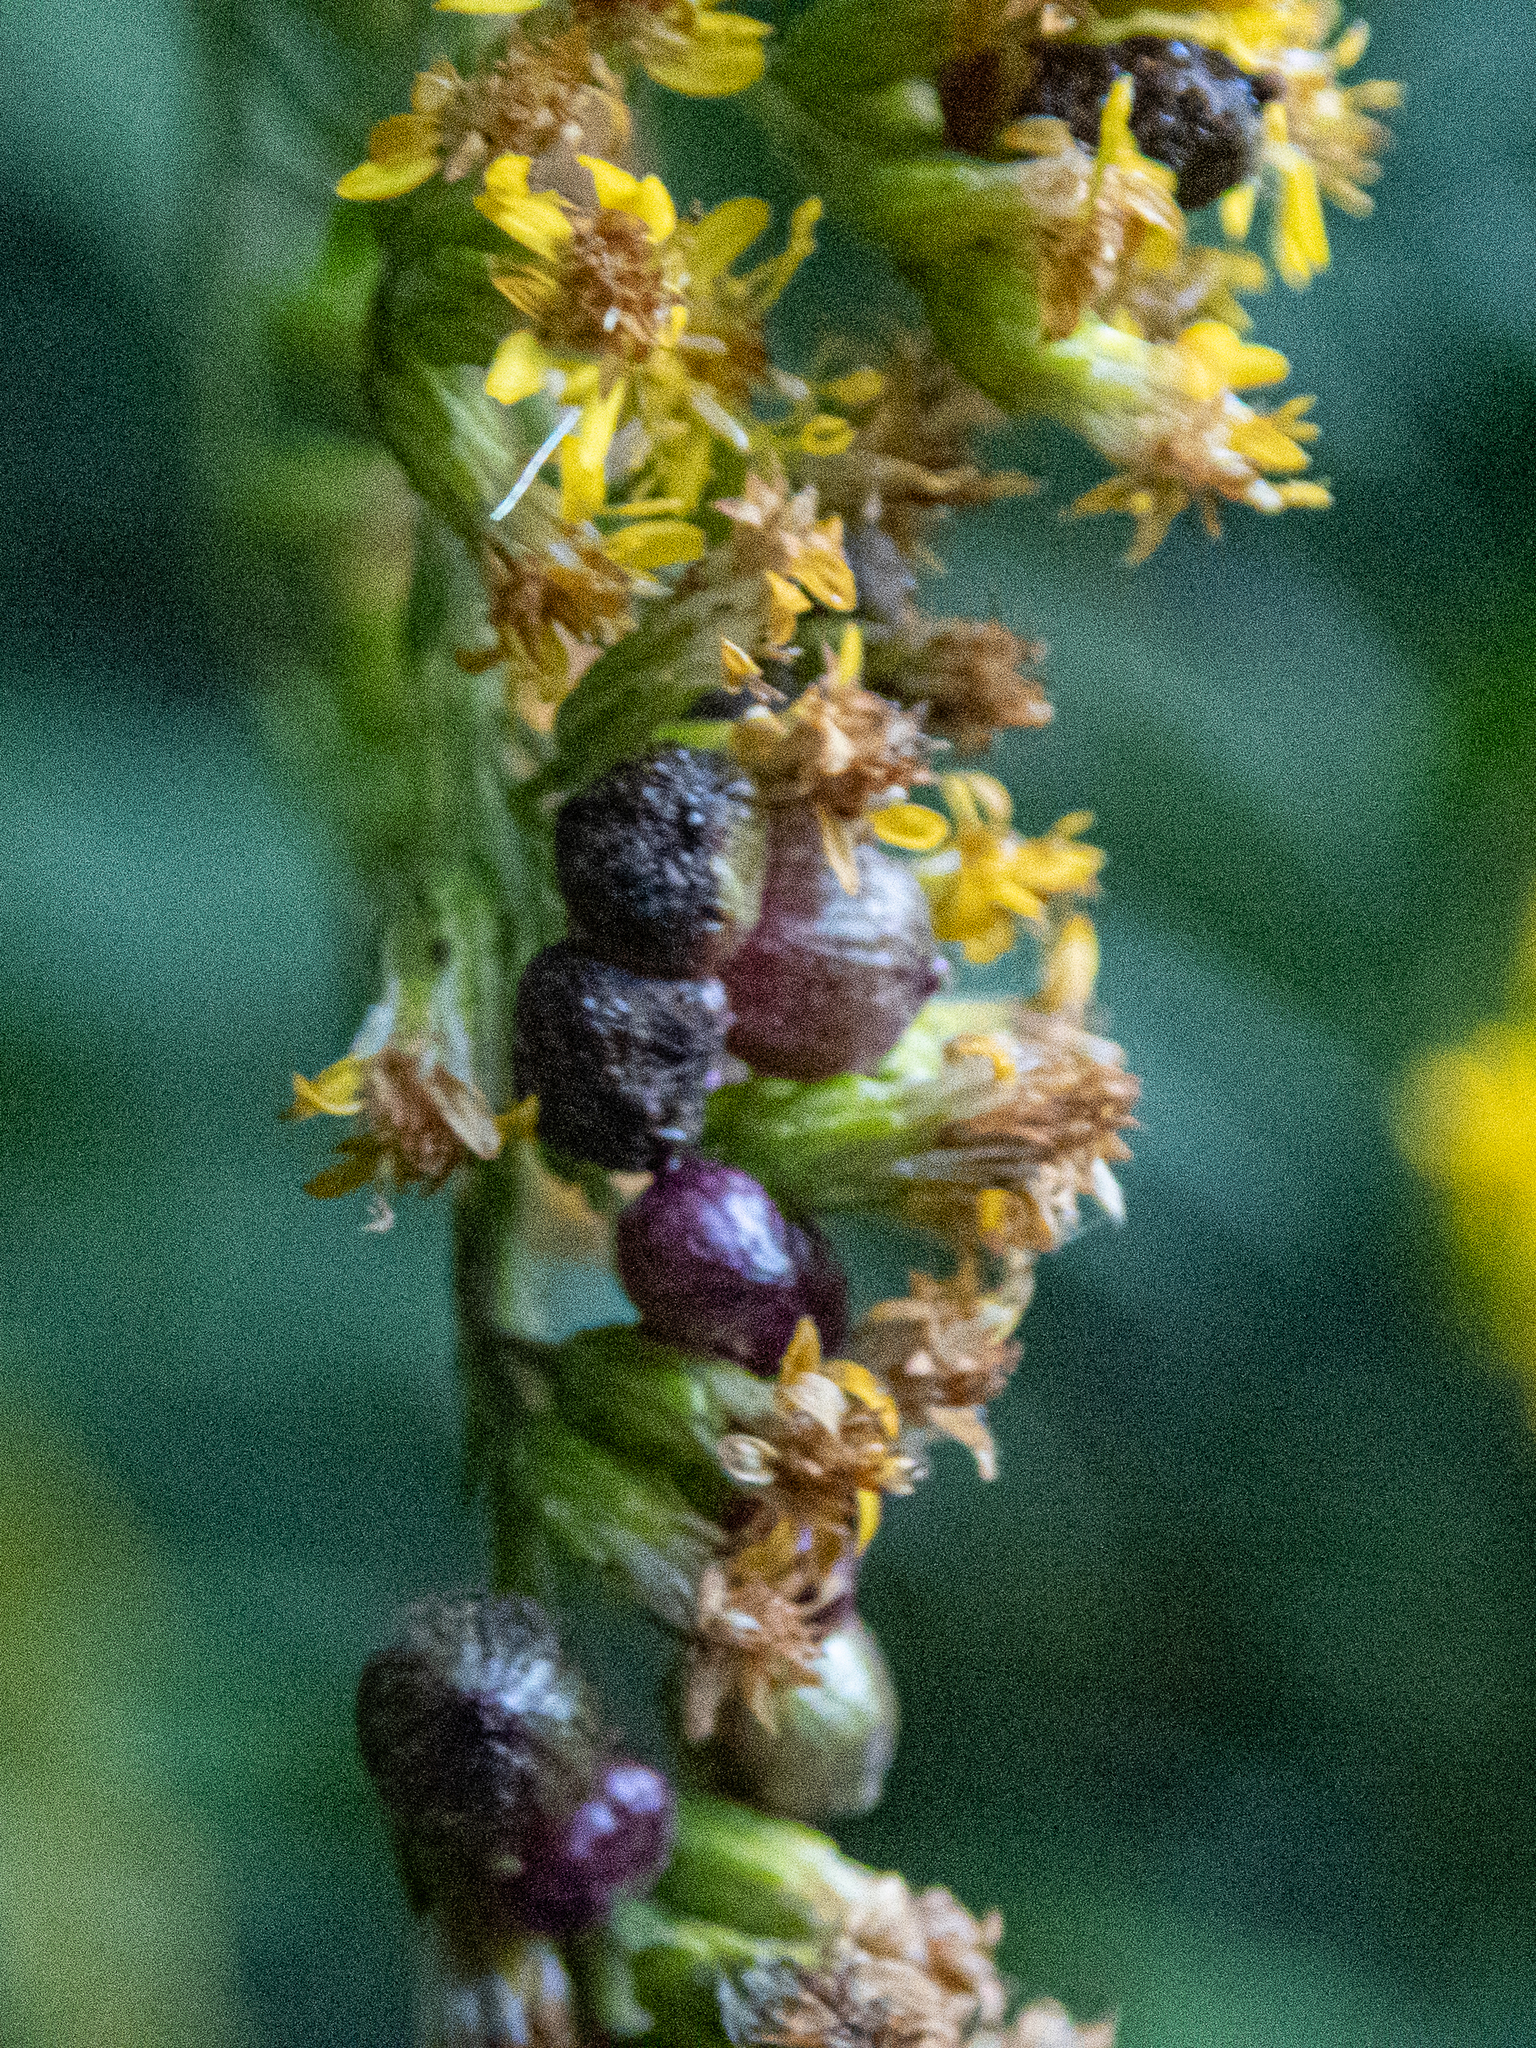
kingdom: Animalia
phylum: Arthropoda
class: Insecta
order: Diptera
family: Cecidomyiidae
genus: Schizomyia
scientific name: Schizomyia racemicola
